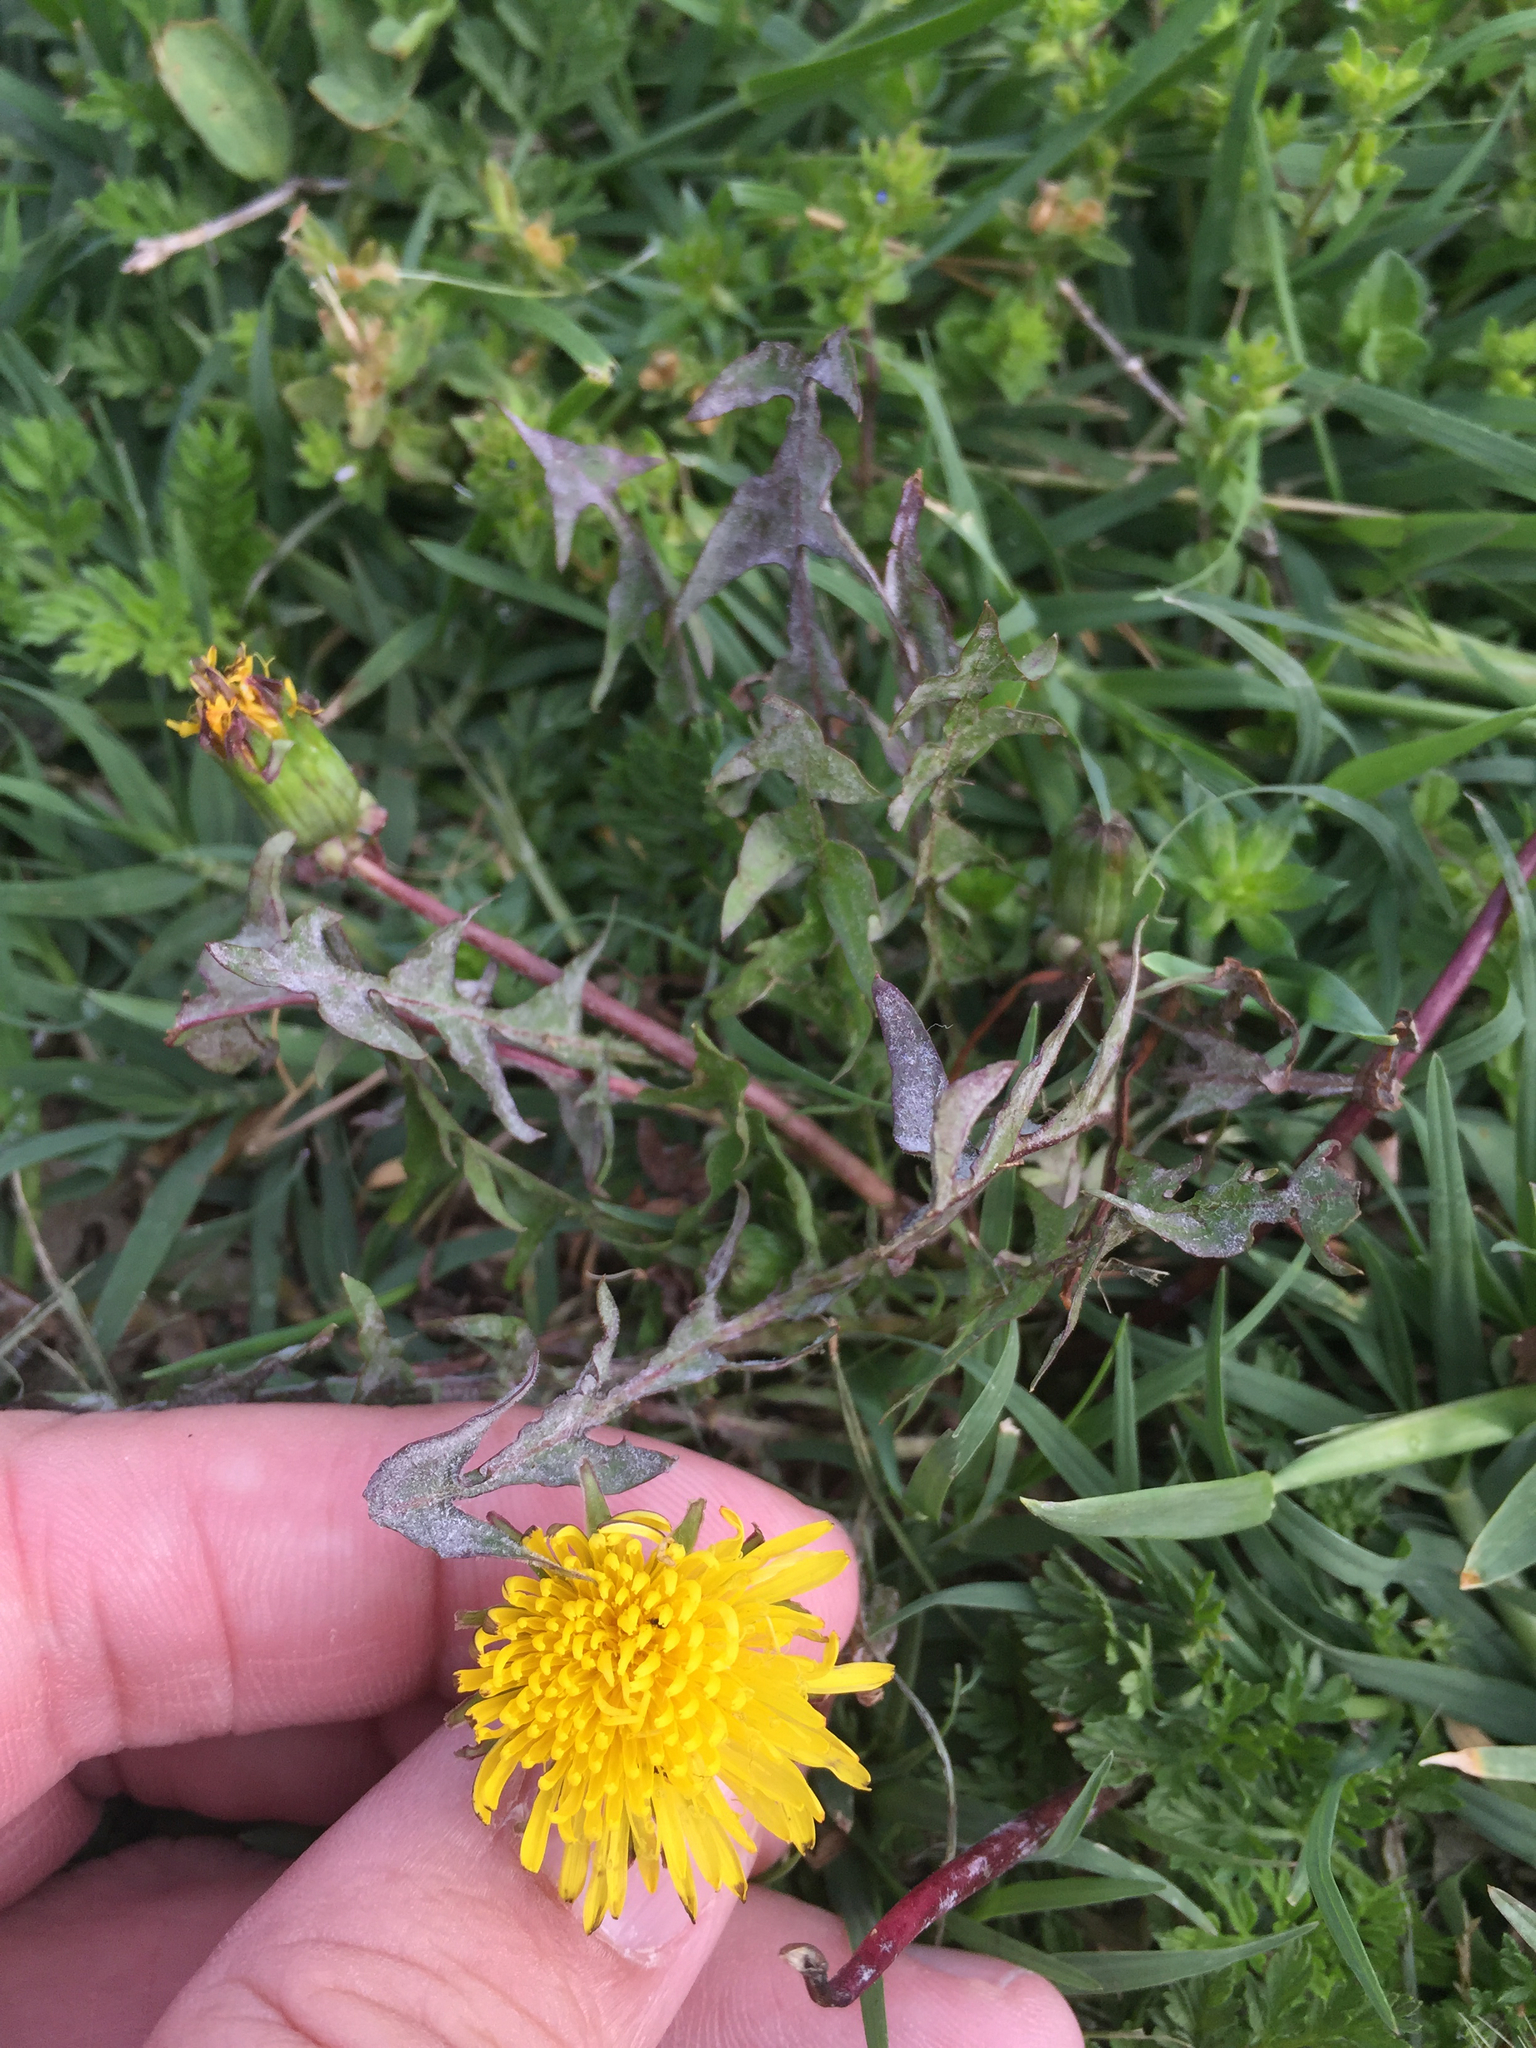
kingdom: Plantae
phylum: Tracheophyta
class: Magnoliopsida
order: Asterales
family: Asteraceae
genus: Taraxacum
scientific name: Taraxacum officinale
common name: Common dandelion
